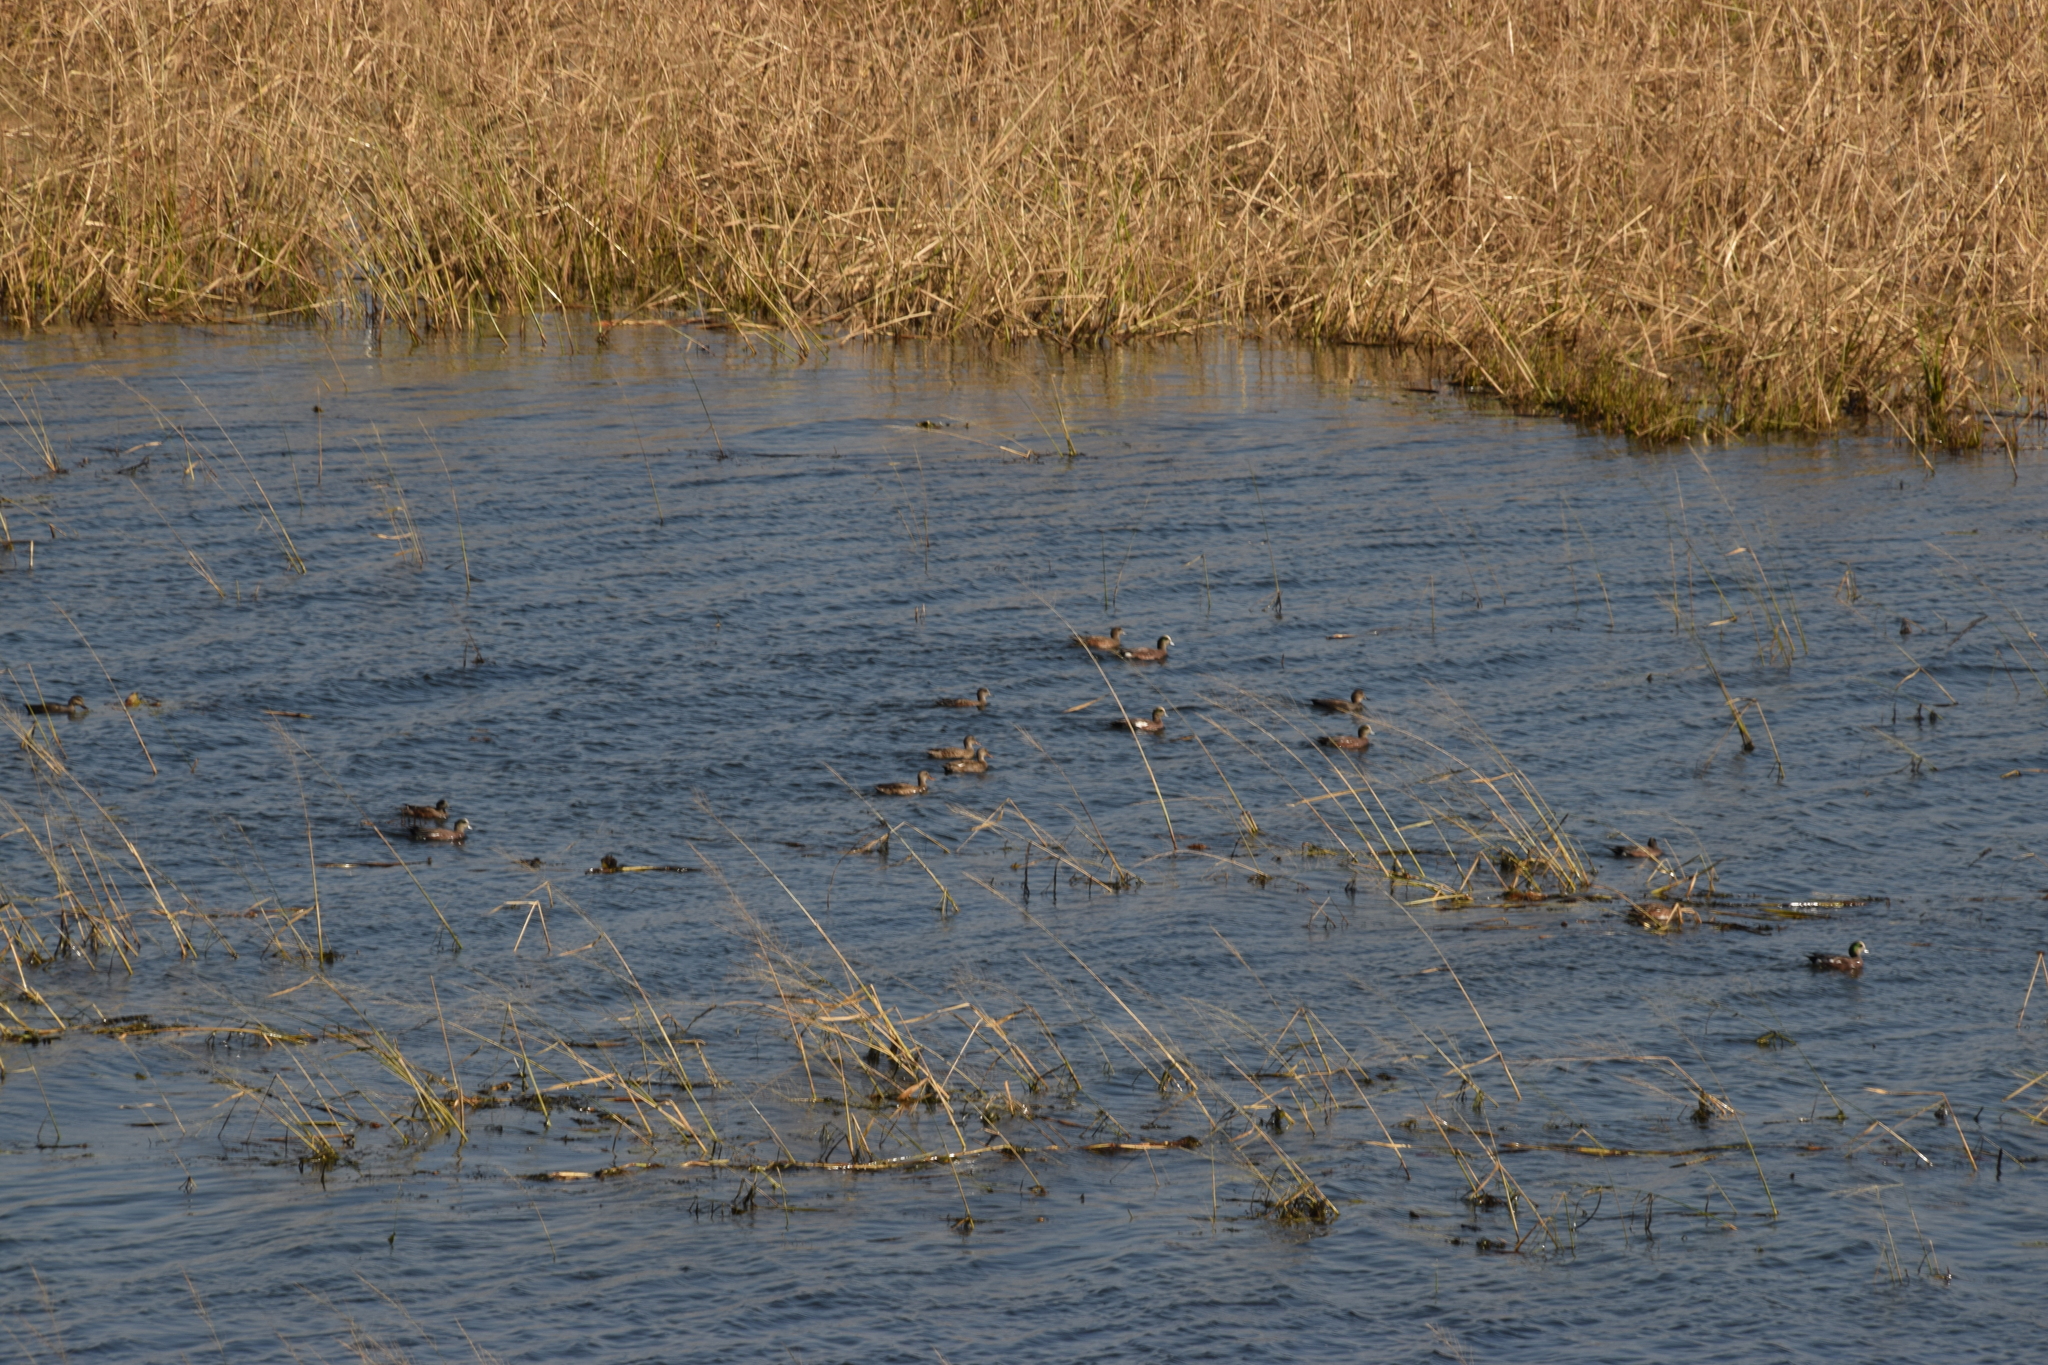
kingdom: Animalia
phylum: Chordata
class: Aves
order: Anseriformes
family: Anatidae
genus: Mareca
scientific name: Mareca strepera
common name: Gadwall
